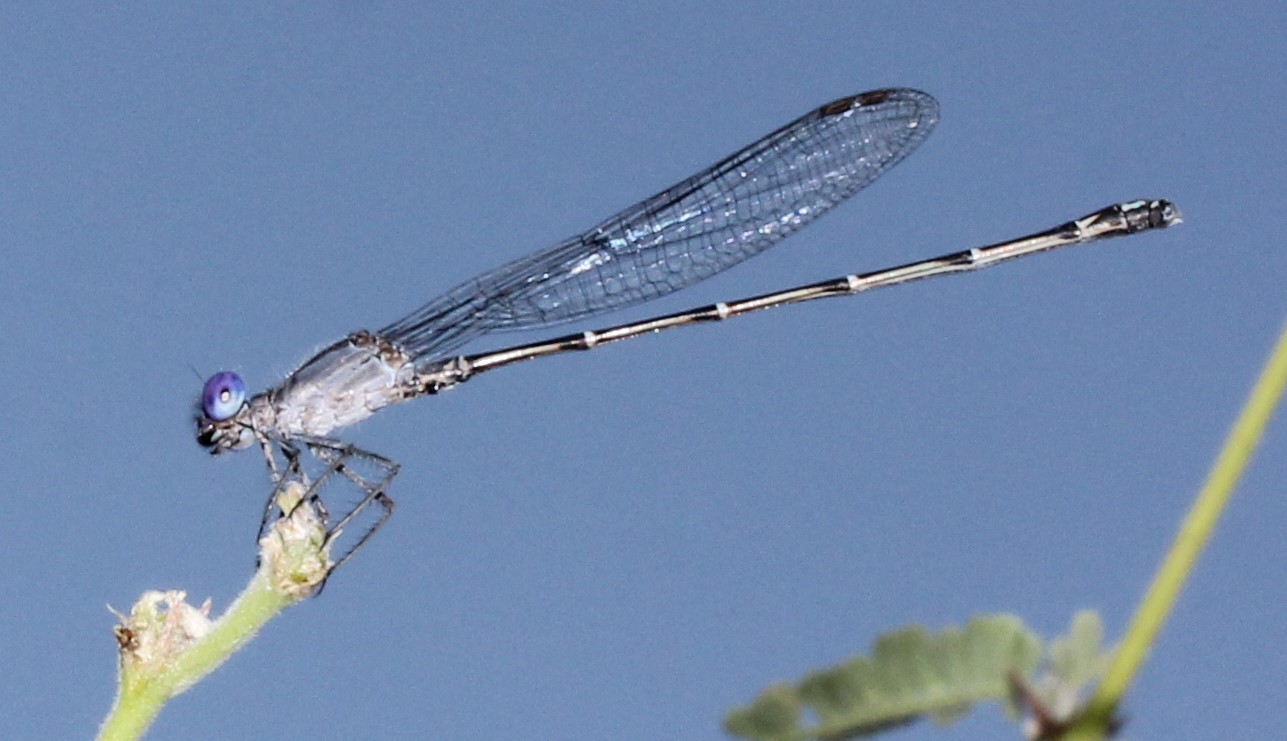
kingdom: Animalia
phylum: Arthropoda
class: Insecta
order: Odonata
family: Coenagrionidae
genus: Argia
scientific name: Argia translata
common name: Dusky dancer
